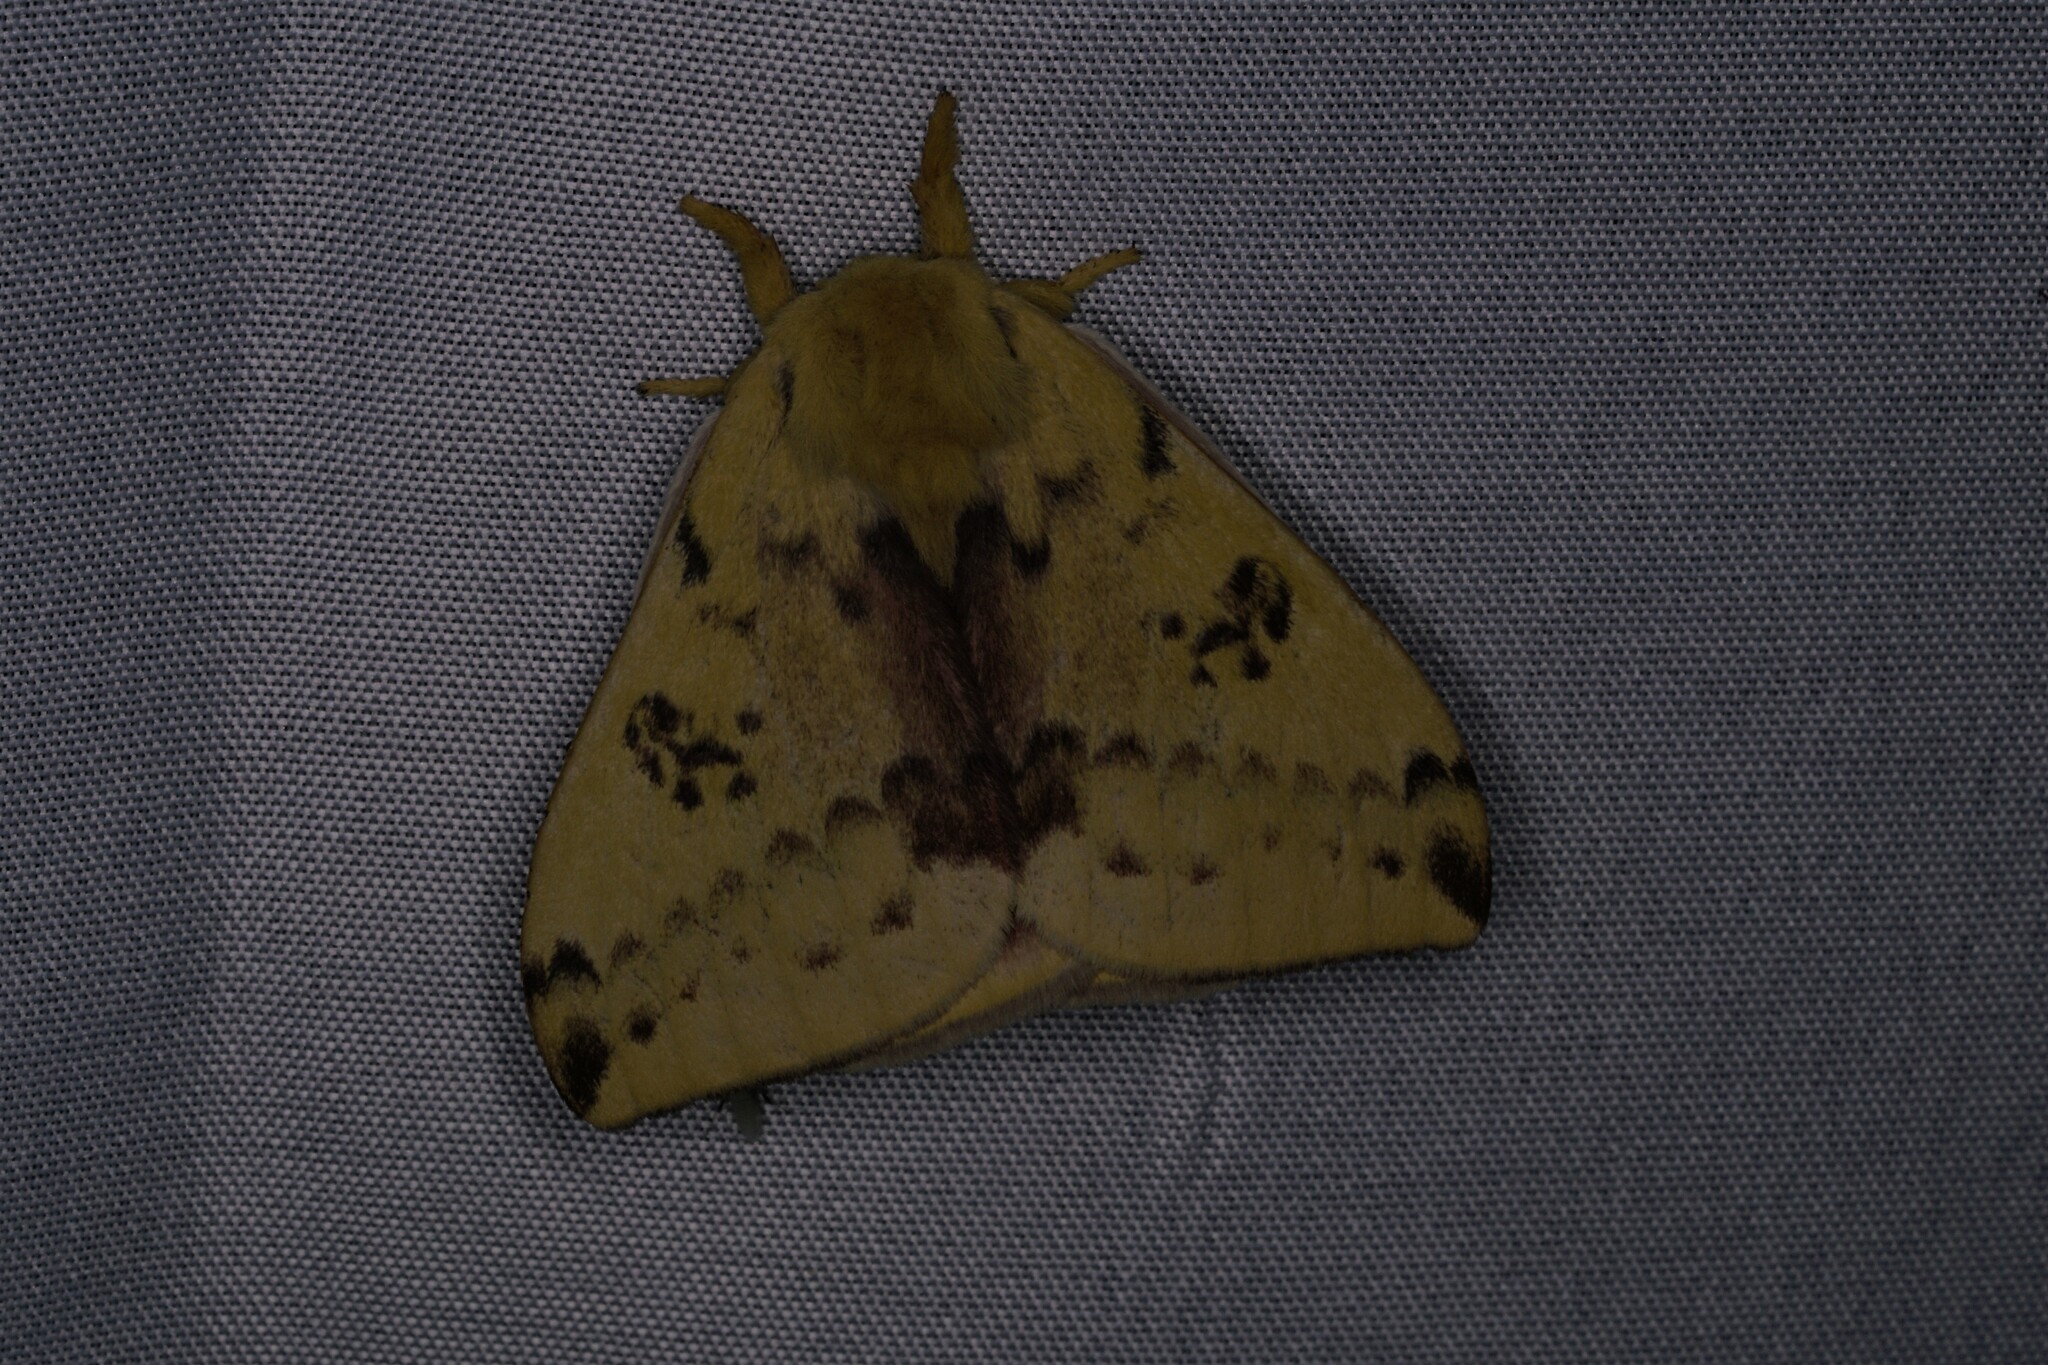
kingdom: Animalia
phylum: Arthropoda
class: Insecta
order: Lepidoptera
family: Saturniidae
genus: Automeris
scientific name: Automeris io
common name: Io moth
